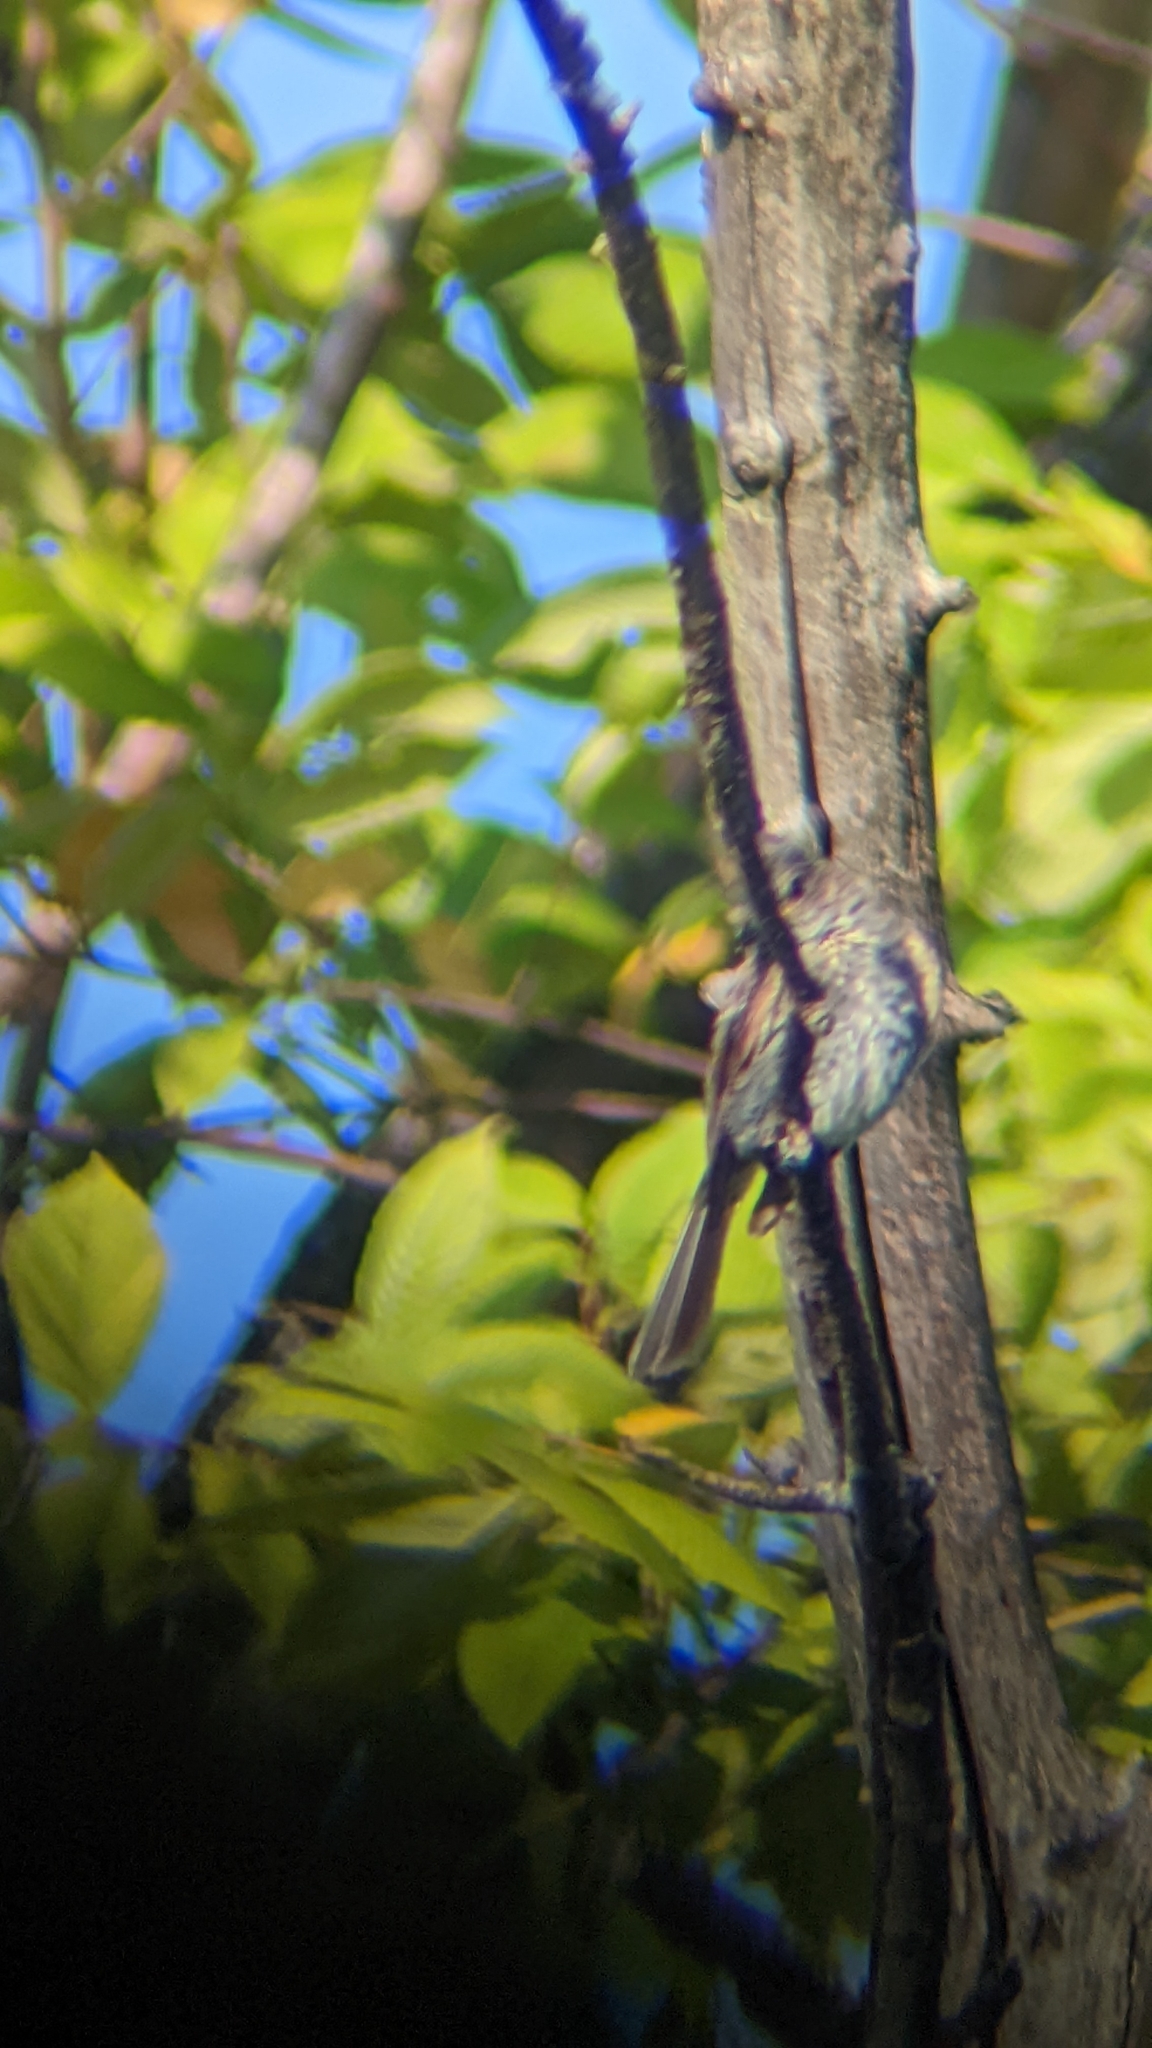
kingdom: Animalia
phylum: Chordata
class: Aves
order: Passeriformes
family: Tyrannidae
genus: Sayornis
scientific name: Sayornis phoebe
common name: Eastern phoebe
